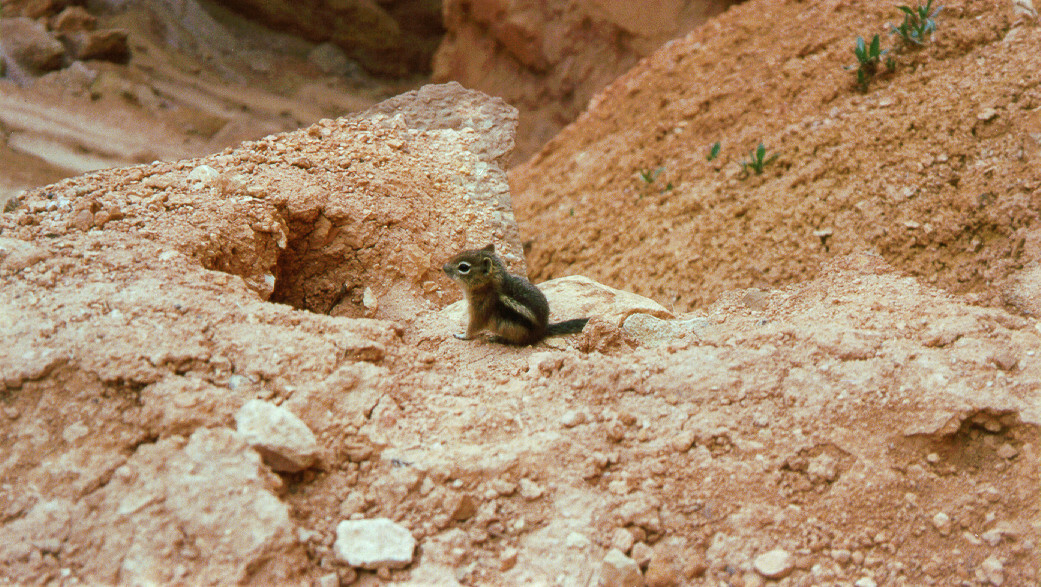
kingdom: Animalia
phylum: Chordata
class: Mammalia
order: Rodentia
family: Sciuridae
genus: Callospermophilus
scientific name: Callospermophilus lateralis
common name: Golden-mantled ground squirrel
